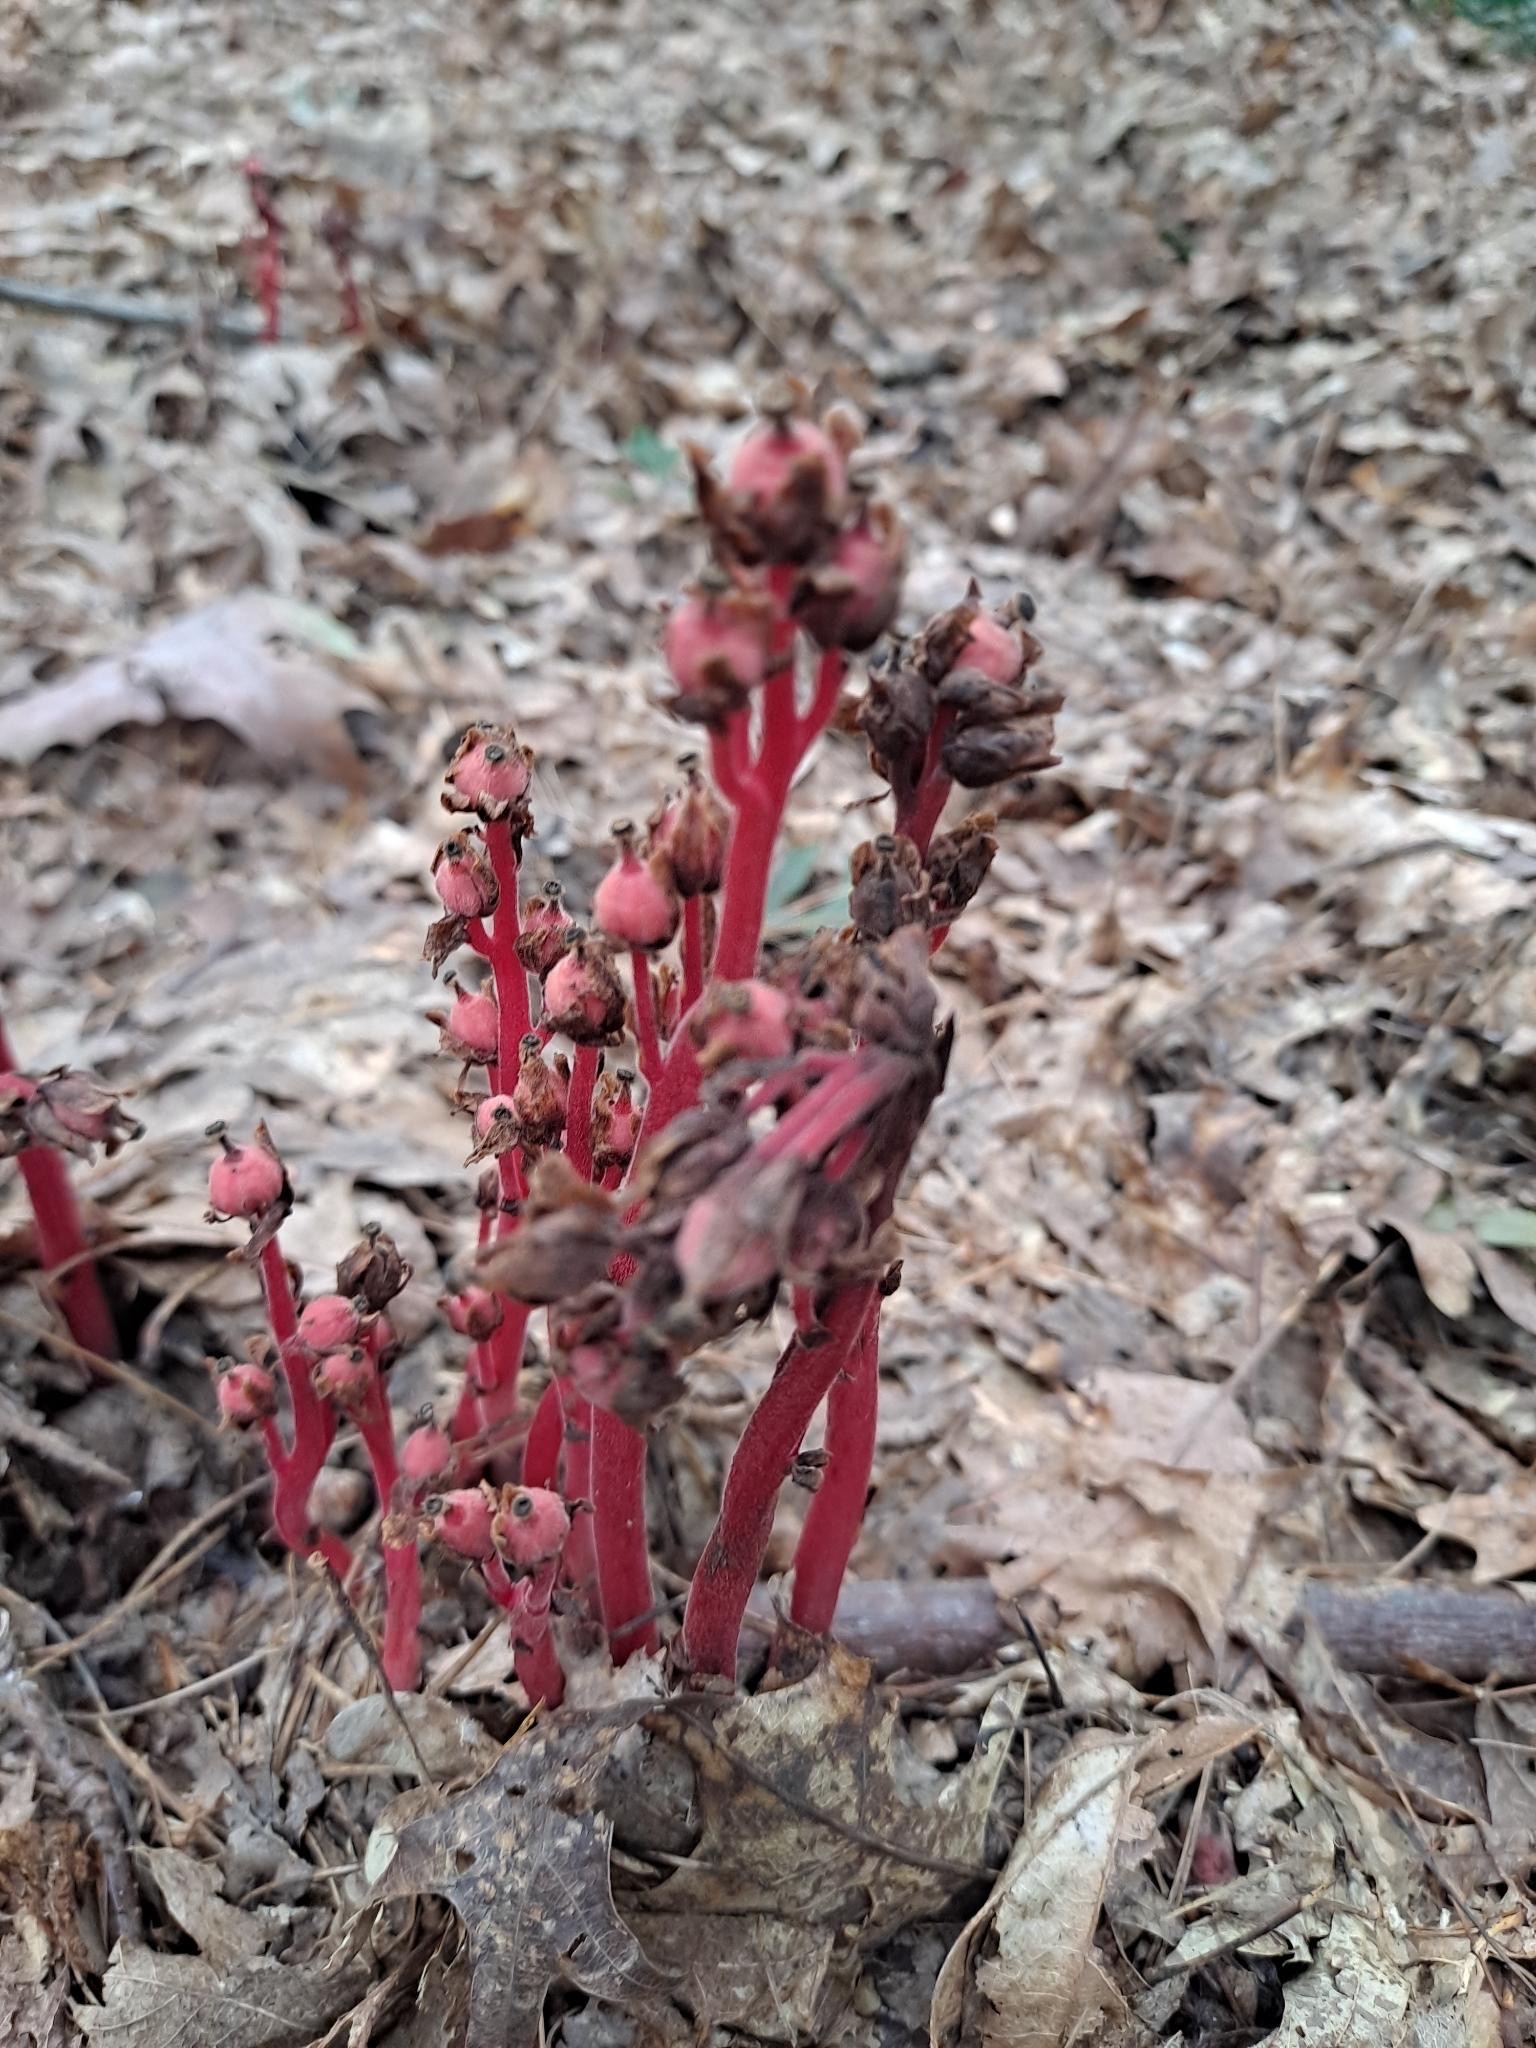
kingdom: Plantae
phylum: Tracheophyta
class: Magnoliopsida
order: Ericales
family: Ericaceae
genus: Hypopitys
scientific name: Hypopitys monotropa
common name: Yellow bird's-nest
